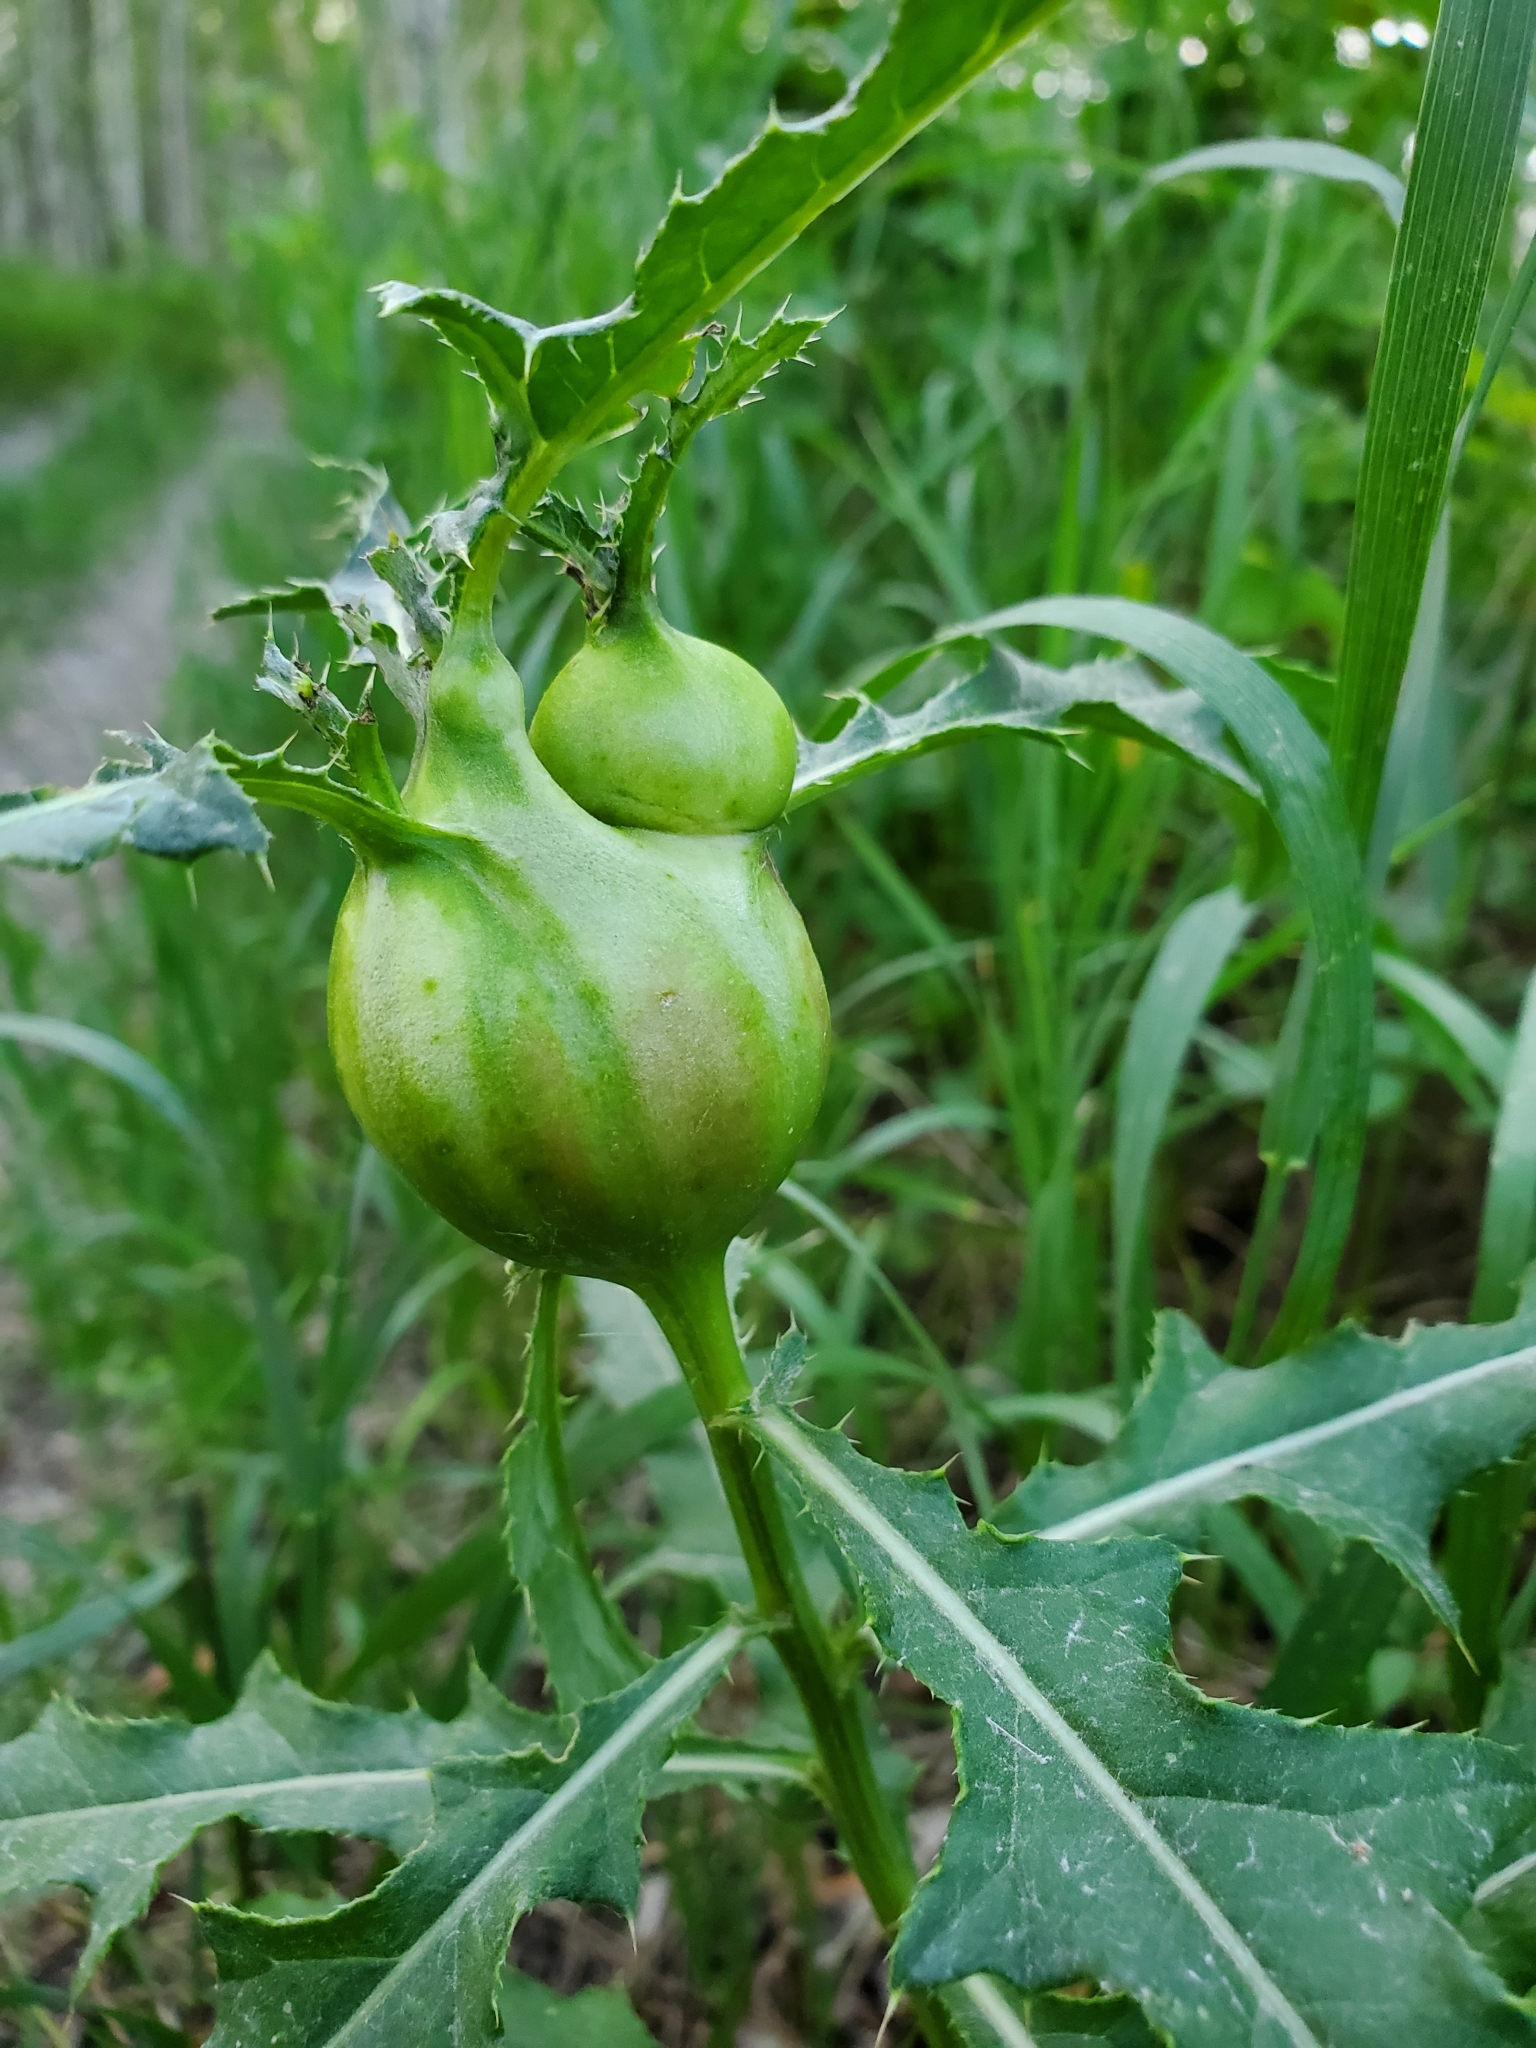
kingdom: Animalia
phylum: Arthropoda
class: Insecta
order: Diptera
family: Tephritidae
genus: Urophora
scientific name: Urophora cardui
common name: Fruit fly
